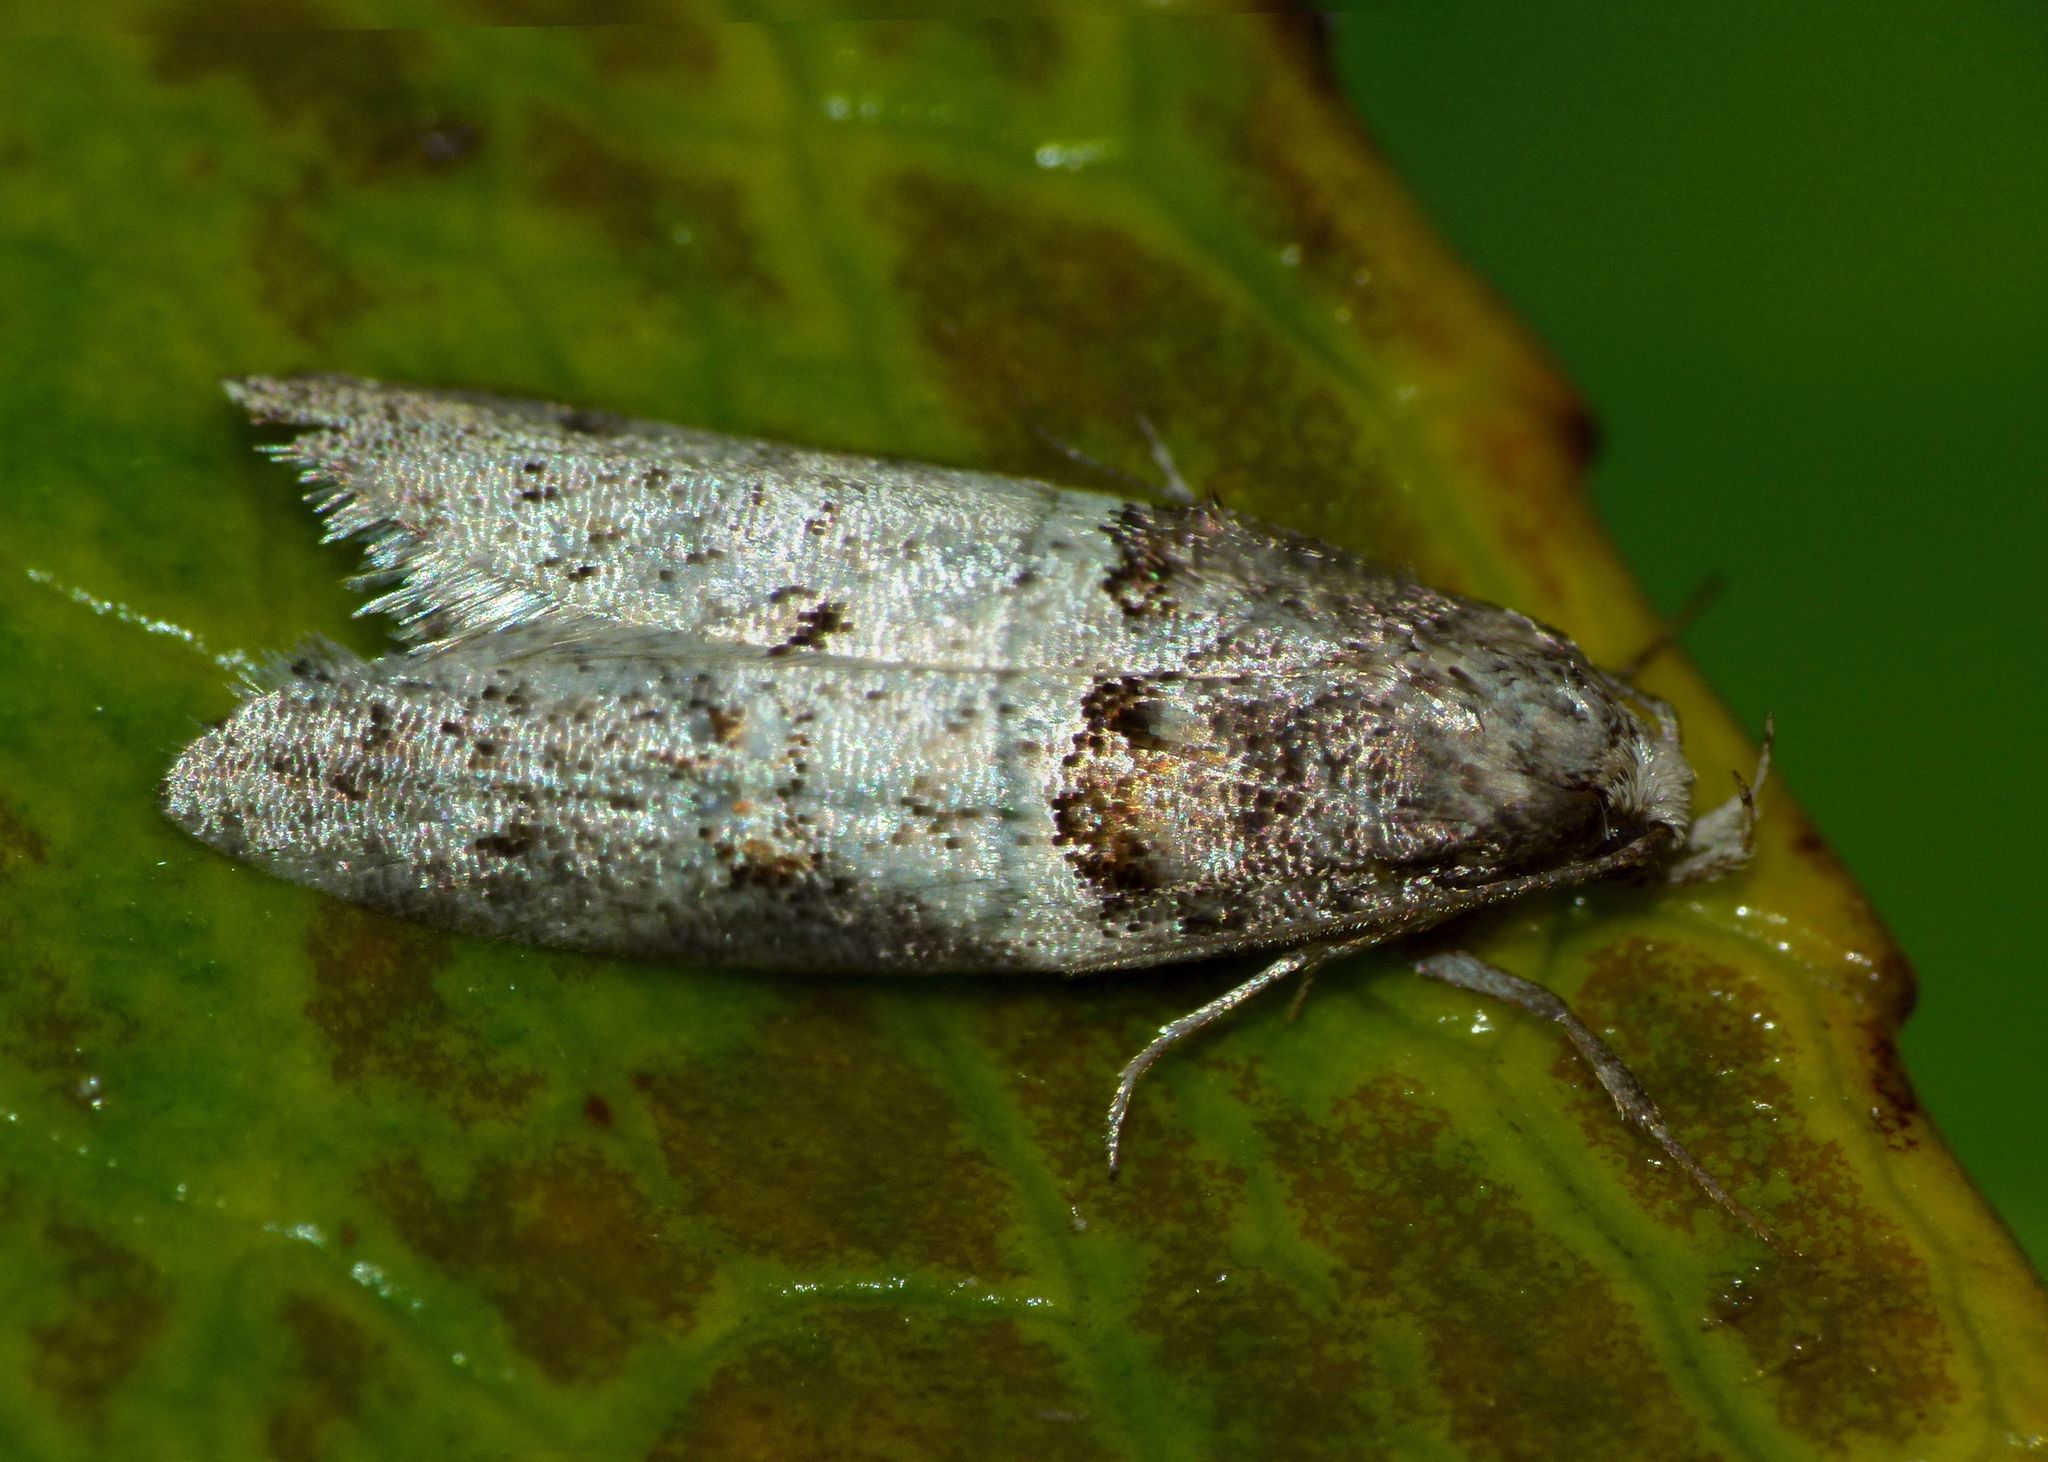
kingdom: Animalia
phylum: Arthropoda
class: Insecta
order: Lepidoptera
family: Oecophoridae
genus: Trachypepla
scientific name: Trachypepla contritella
